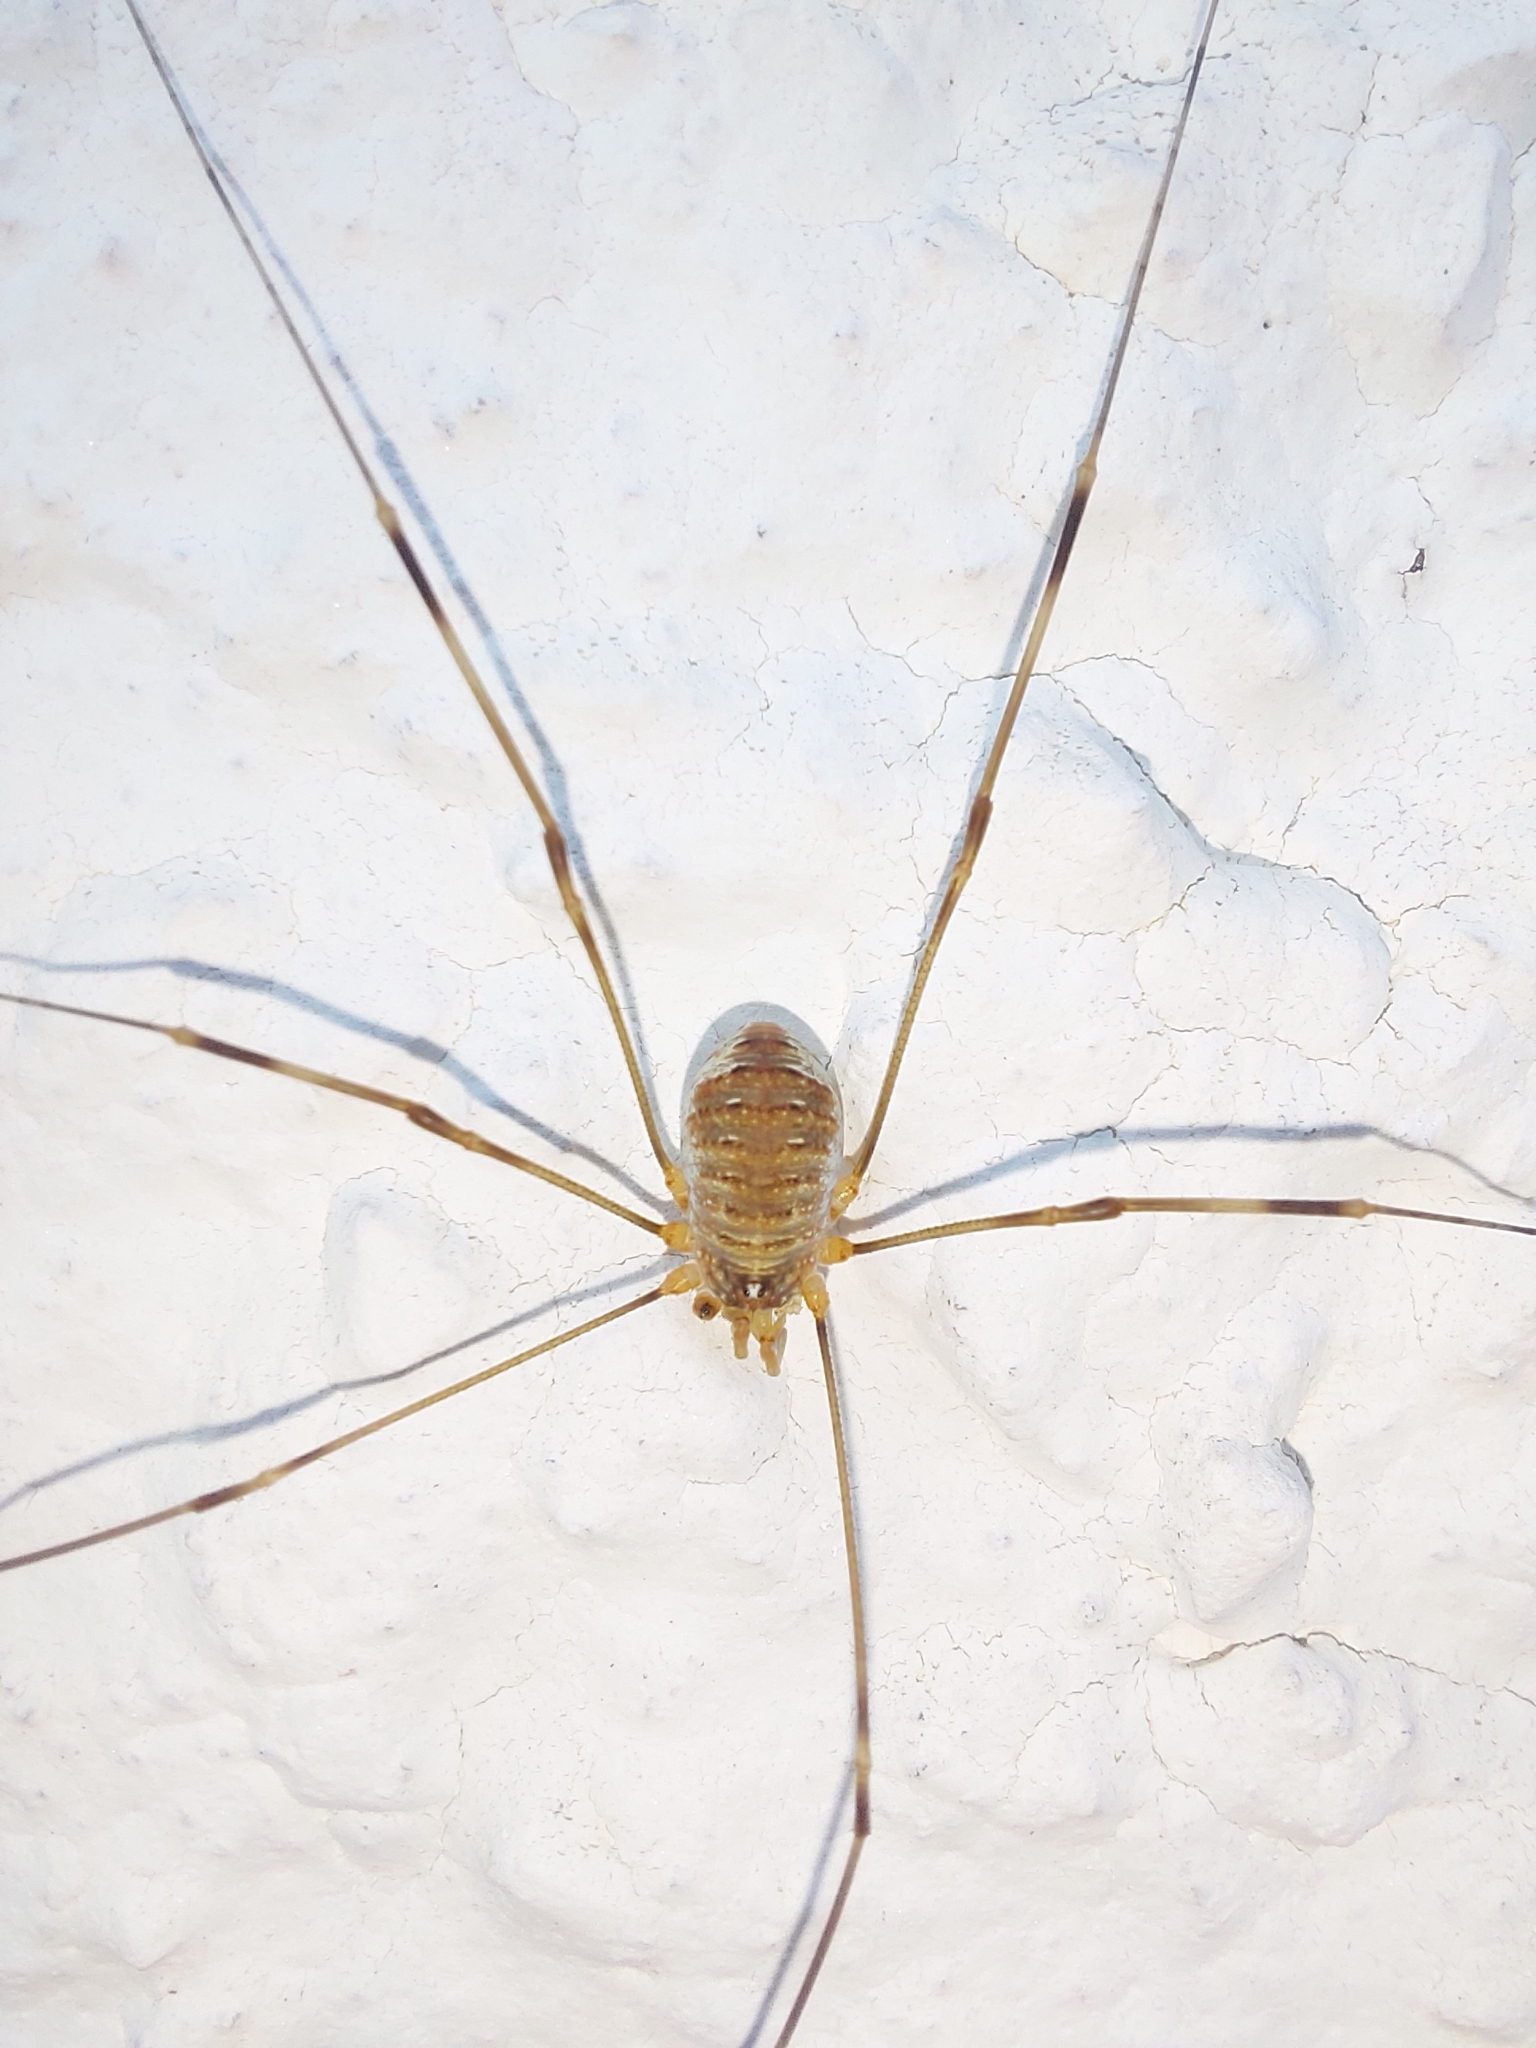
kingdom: Animalia
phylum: Arthropoda
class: Arachnida
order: Opiliones
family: Phalangiidae
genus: Opilio
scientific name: Opilio canestrinii
